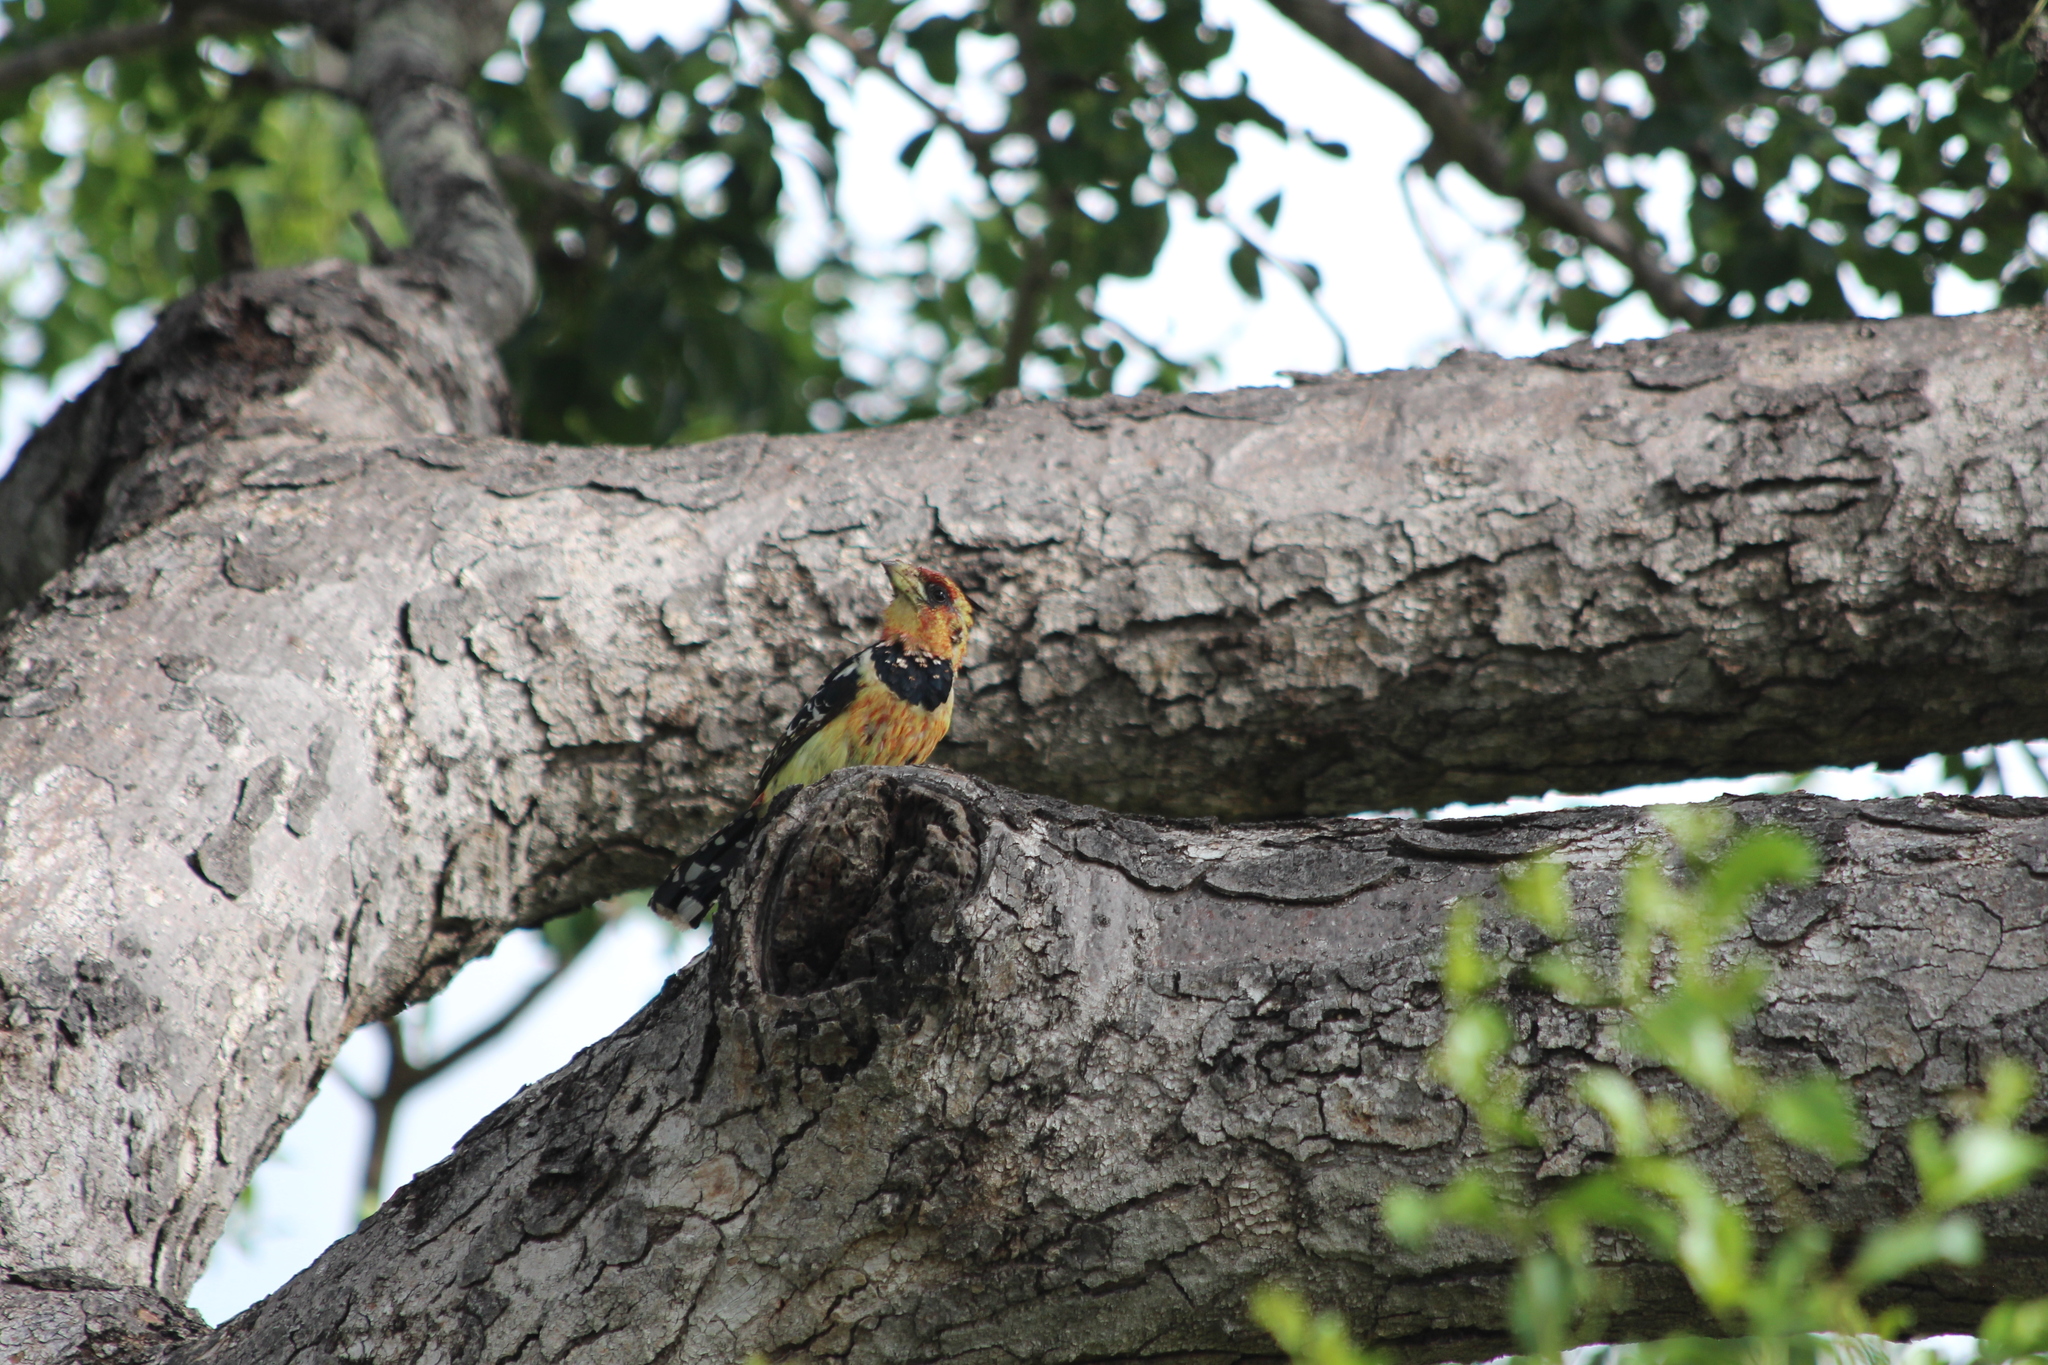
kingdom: Animalia
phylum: Chordata
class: Aves
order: Piciformes
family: Lybiidae
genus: Trachyphonus
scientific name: Trachyphonus vaillantii
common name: Crested barbet
